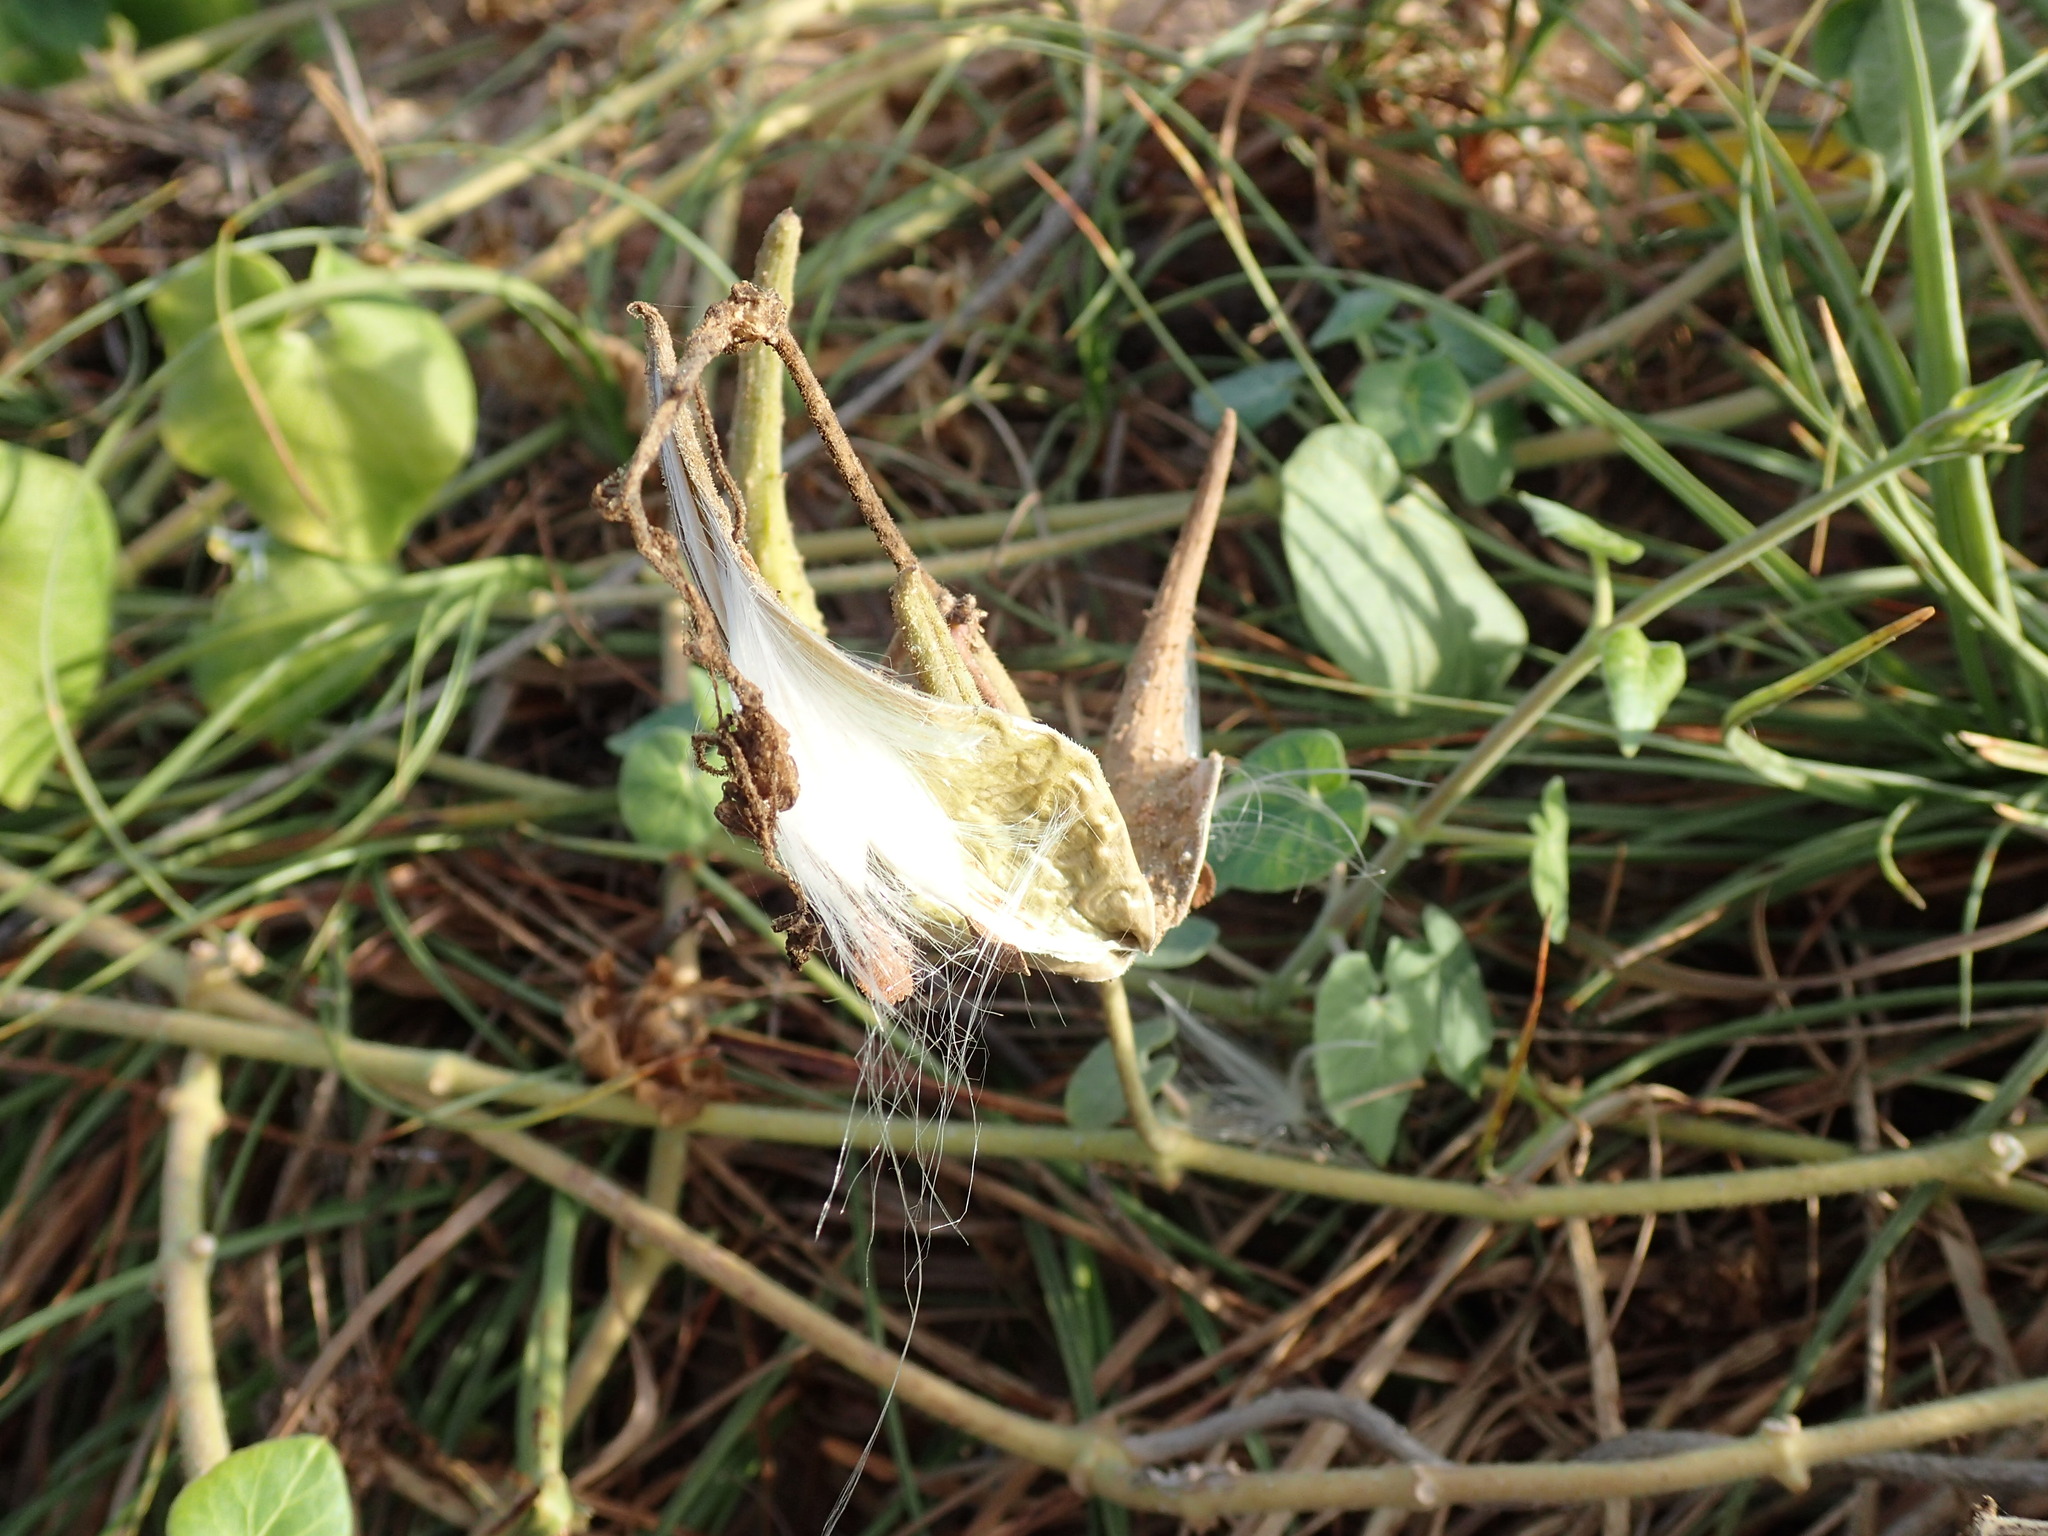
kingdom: Plantae
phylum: Tracheophyta
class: Magnoliopsida
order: Gentianales
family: Apocynaceae
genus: Pergularia
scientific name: Pergularia daemia
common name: Trellis-vine
